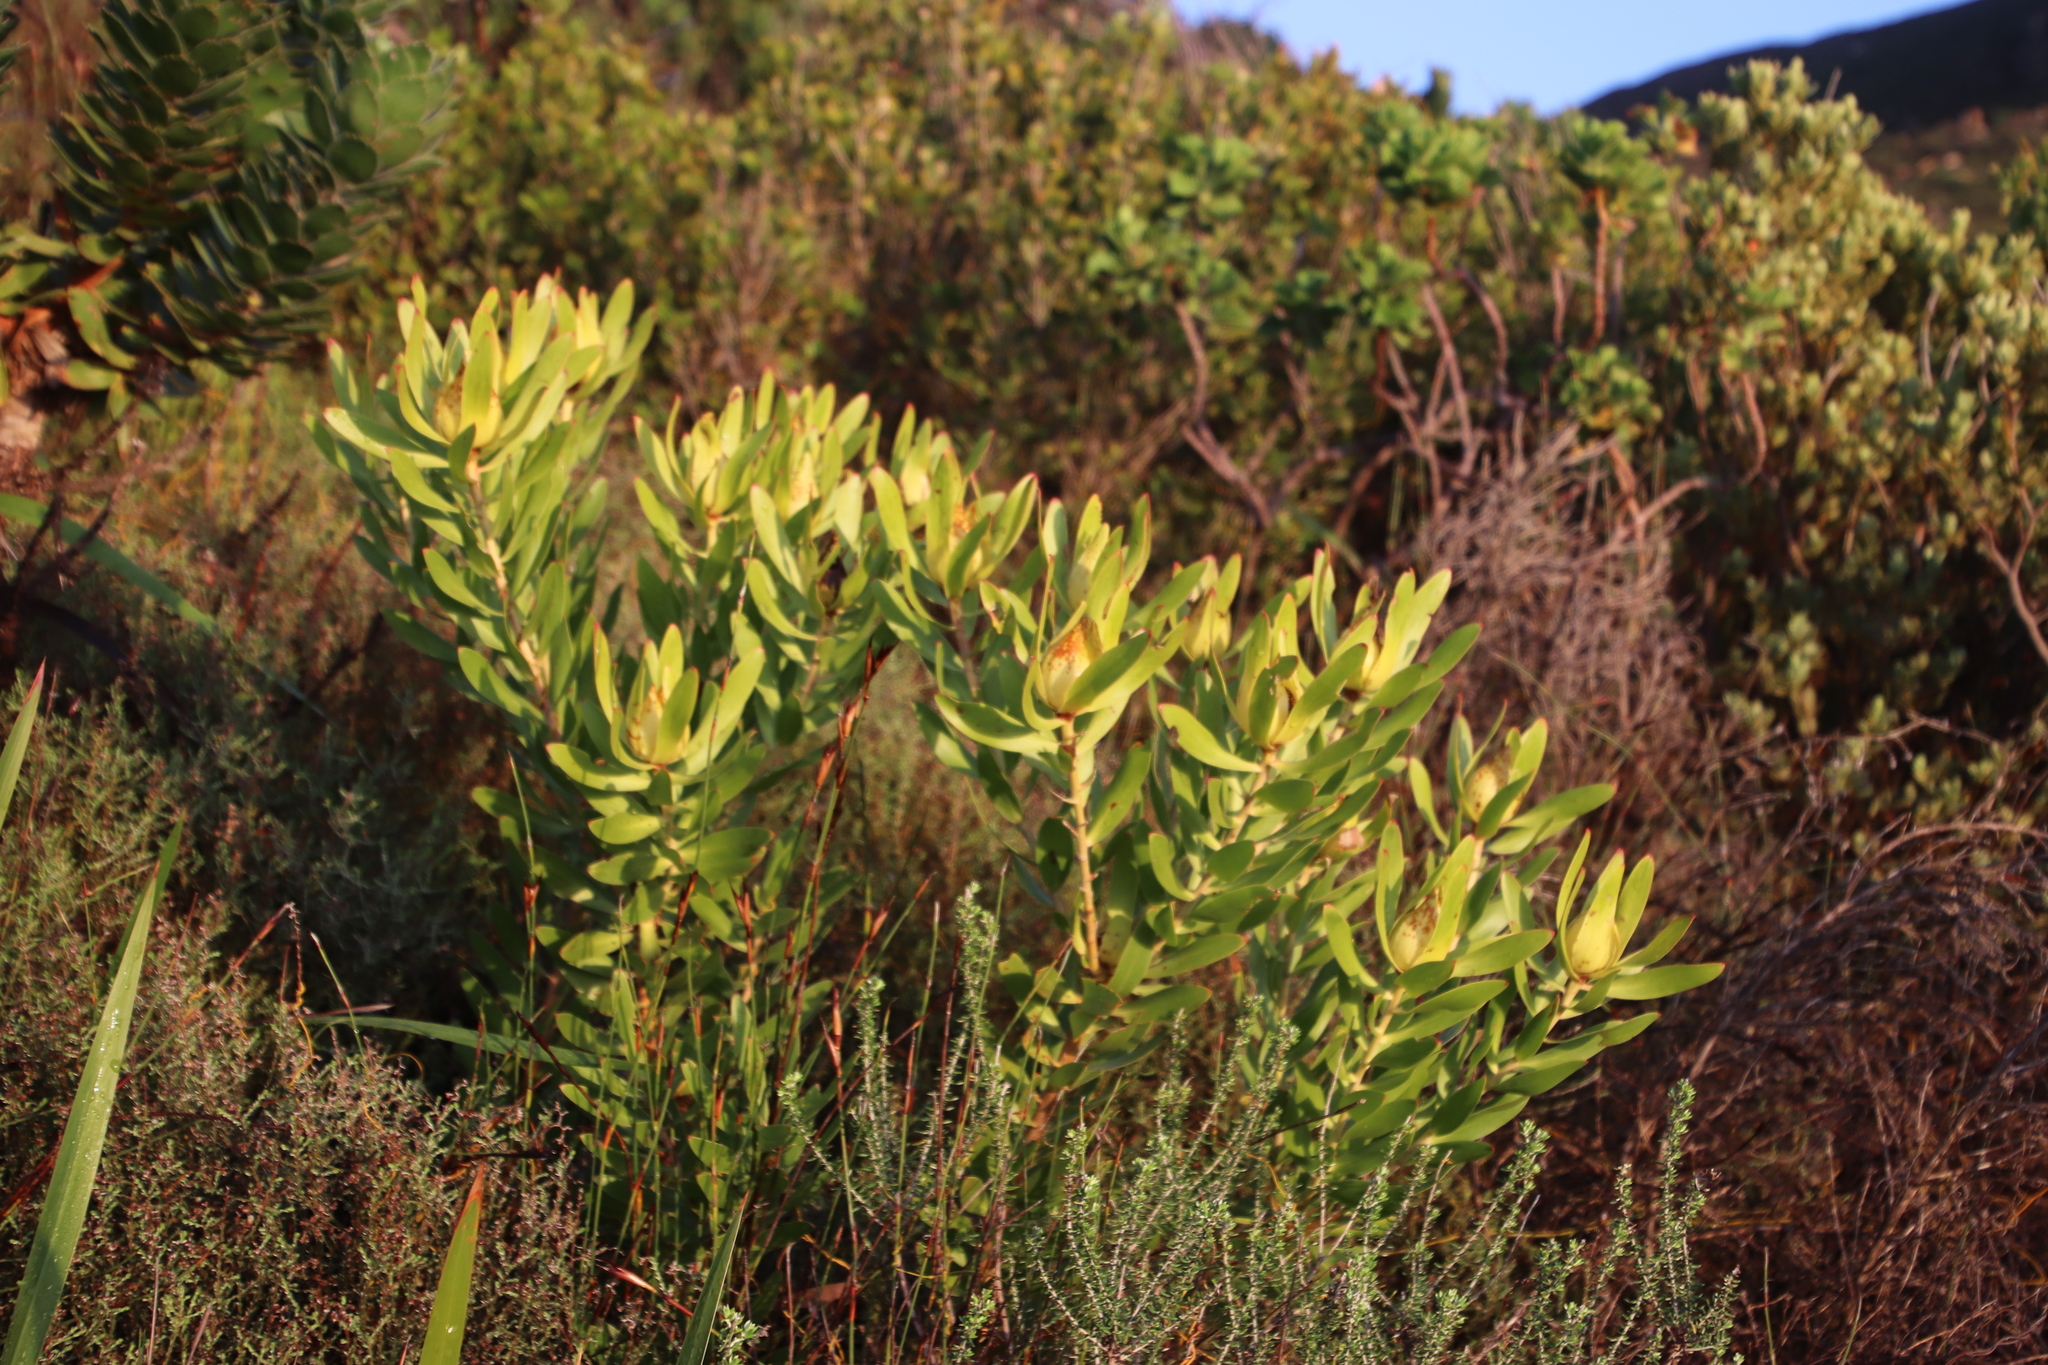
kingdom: Plantae
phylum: Tracheophyta
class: Magnoliopsida
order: Proteales
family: Proteaceae
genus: Leucadendron
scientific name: Leucadendron laureolum
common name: Golden sunshinebush
